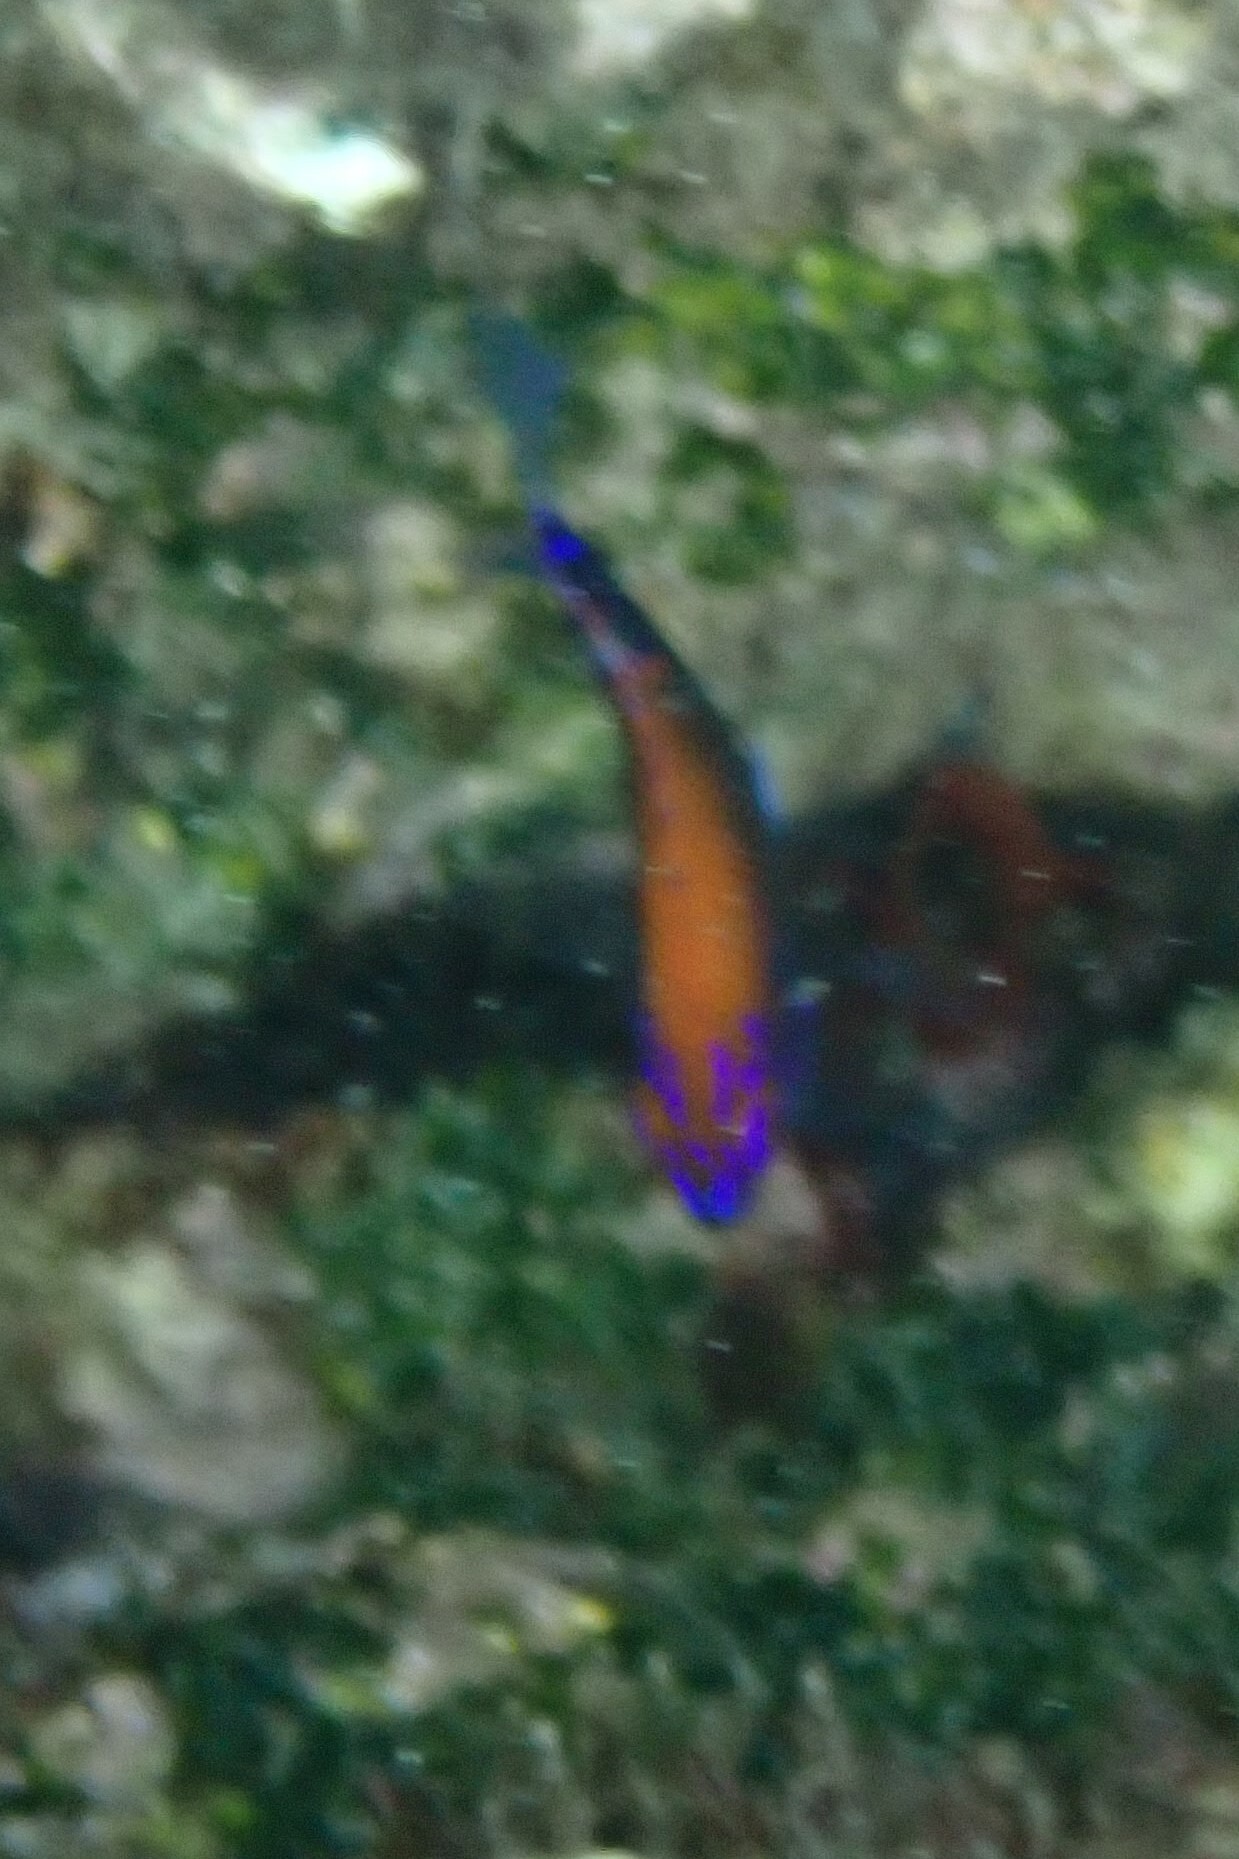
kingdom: Animalia
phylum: Chordata
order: Perciformes
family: Pomacentridae
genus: Stegastes
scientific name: Stegastes beebei
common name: Galapagos ringtail damselfish
